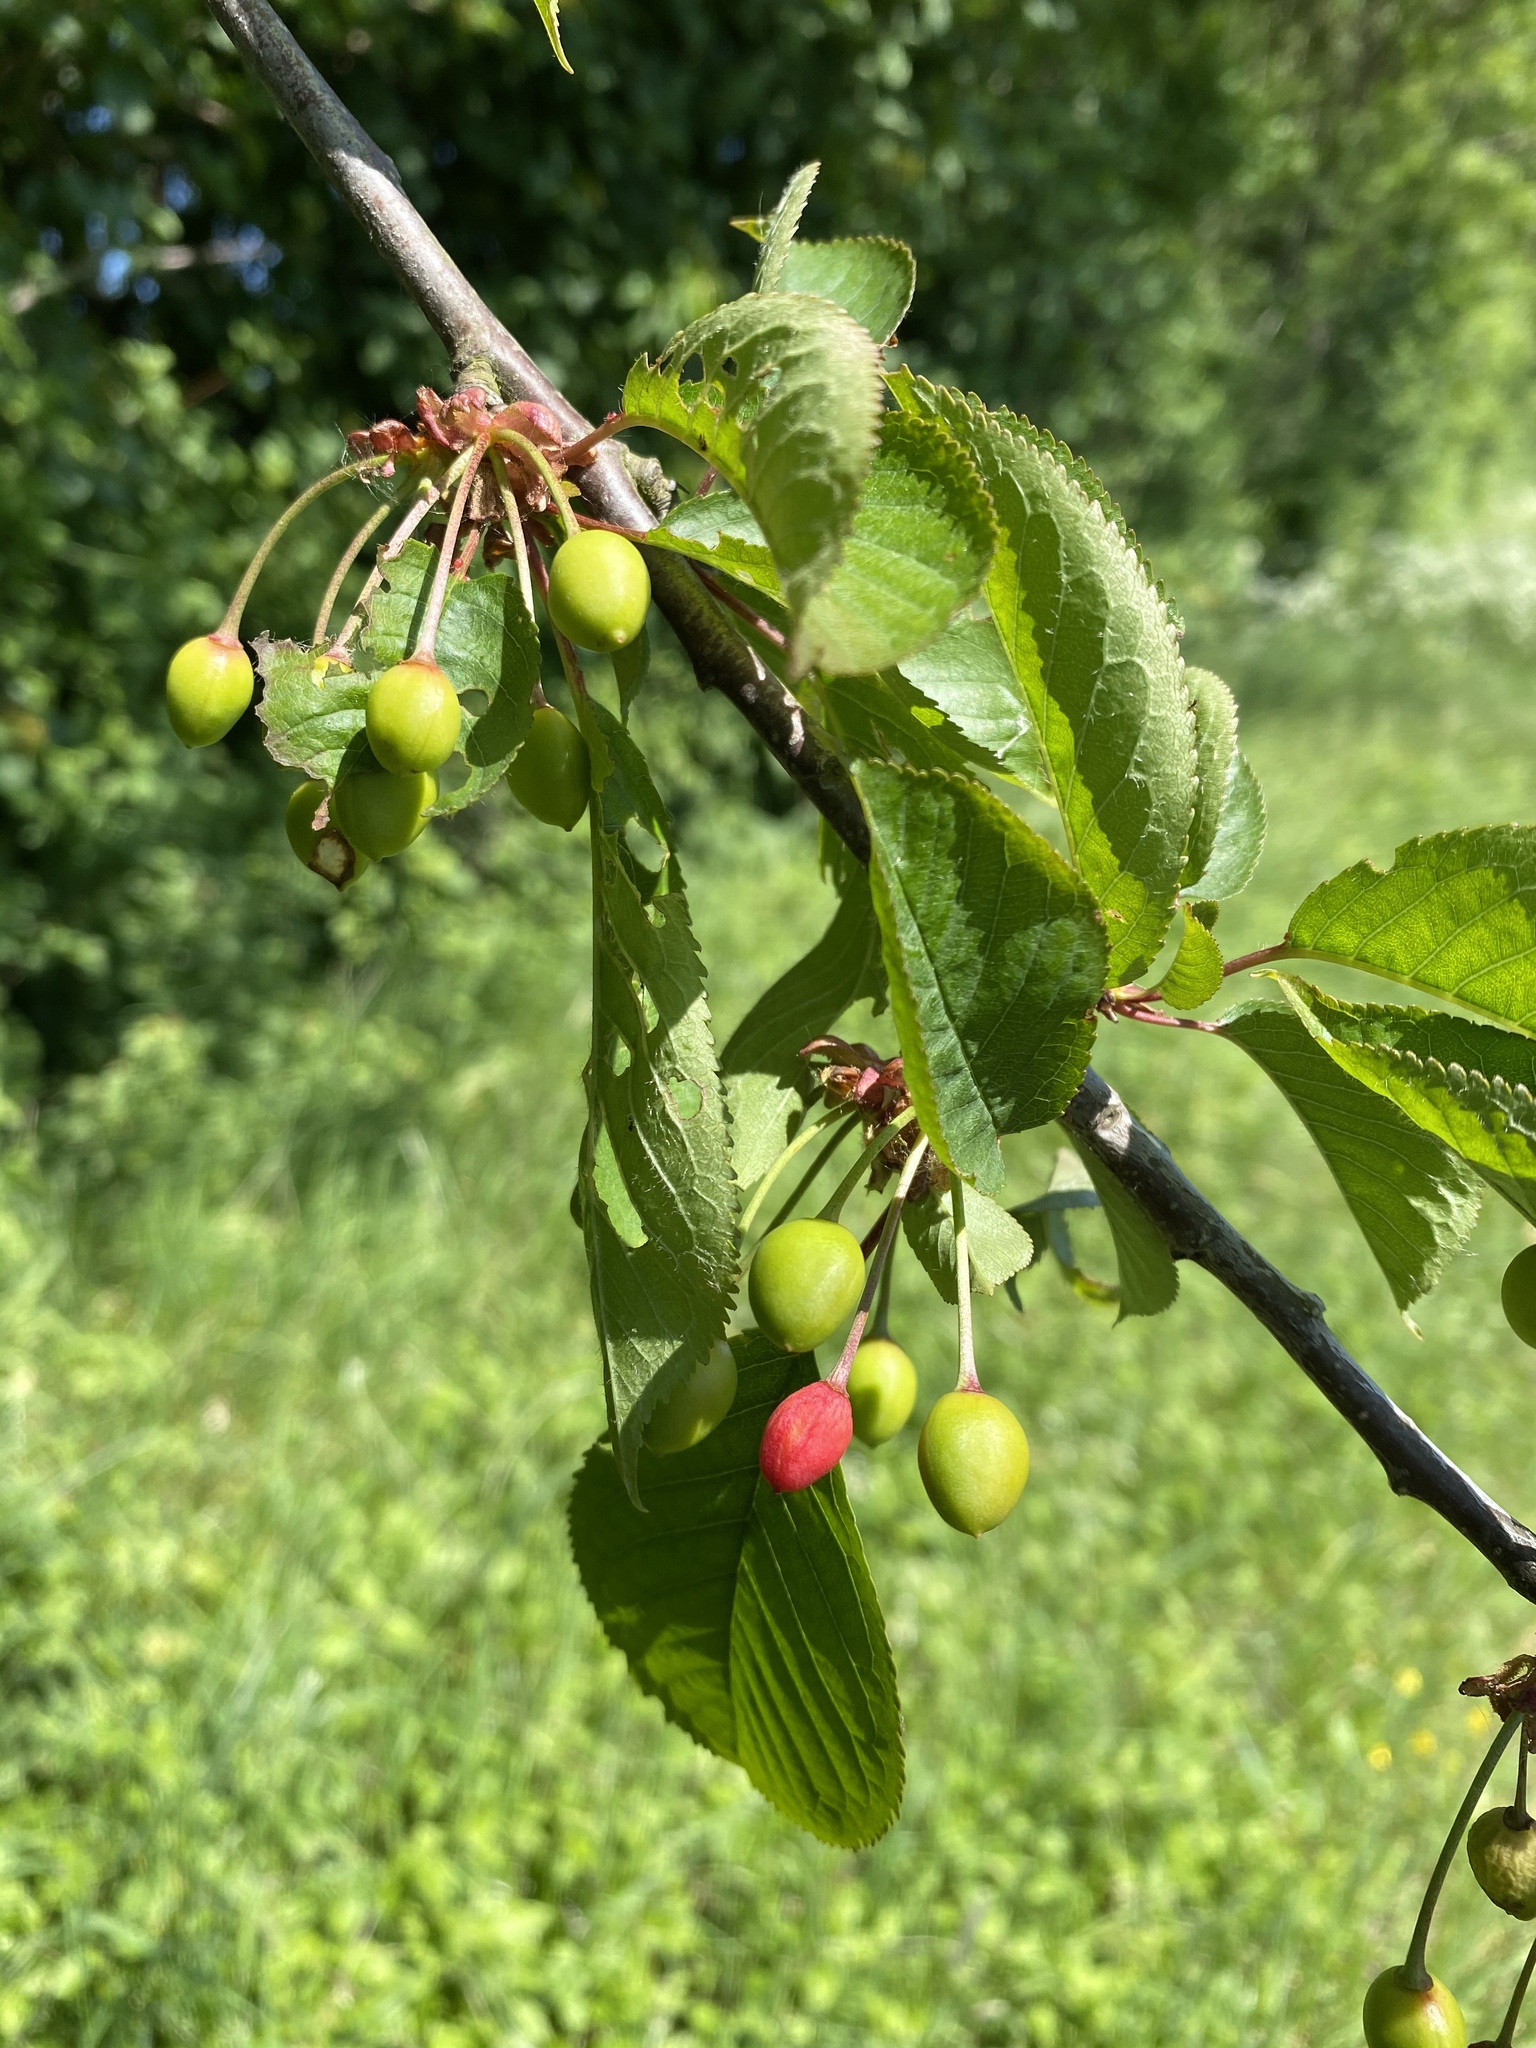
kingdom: Plantae
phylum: Tracheophyta
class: Magnoliopsida
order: Rosales
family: Rosaceae
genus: Prunus
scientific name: Prunus avium
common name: Sweet cherry
